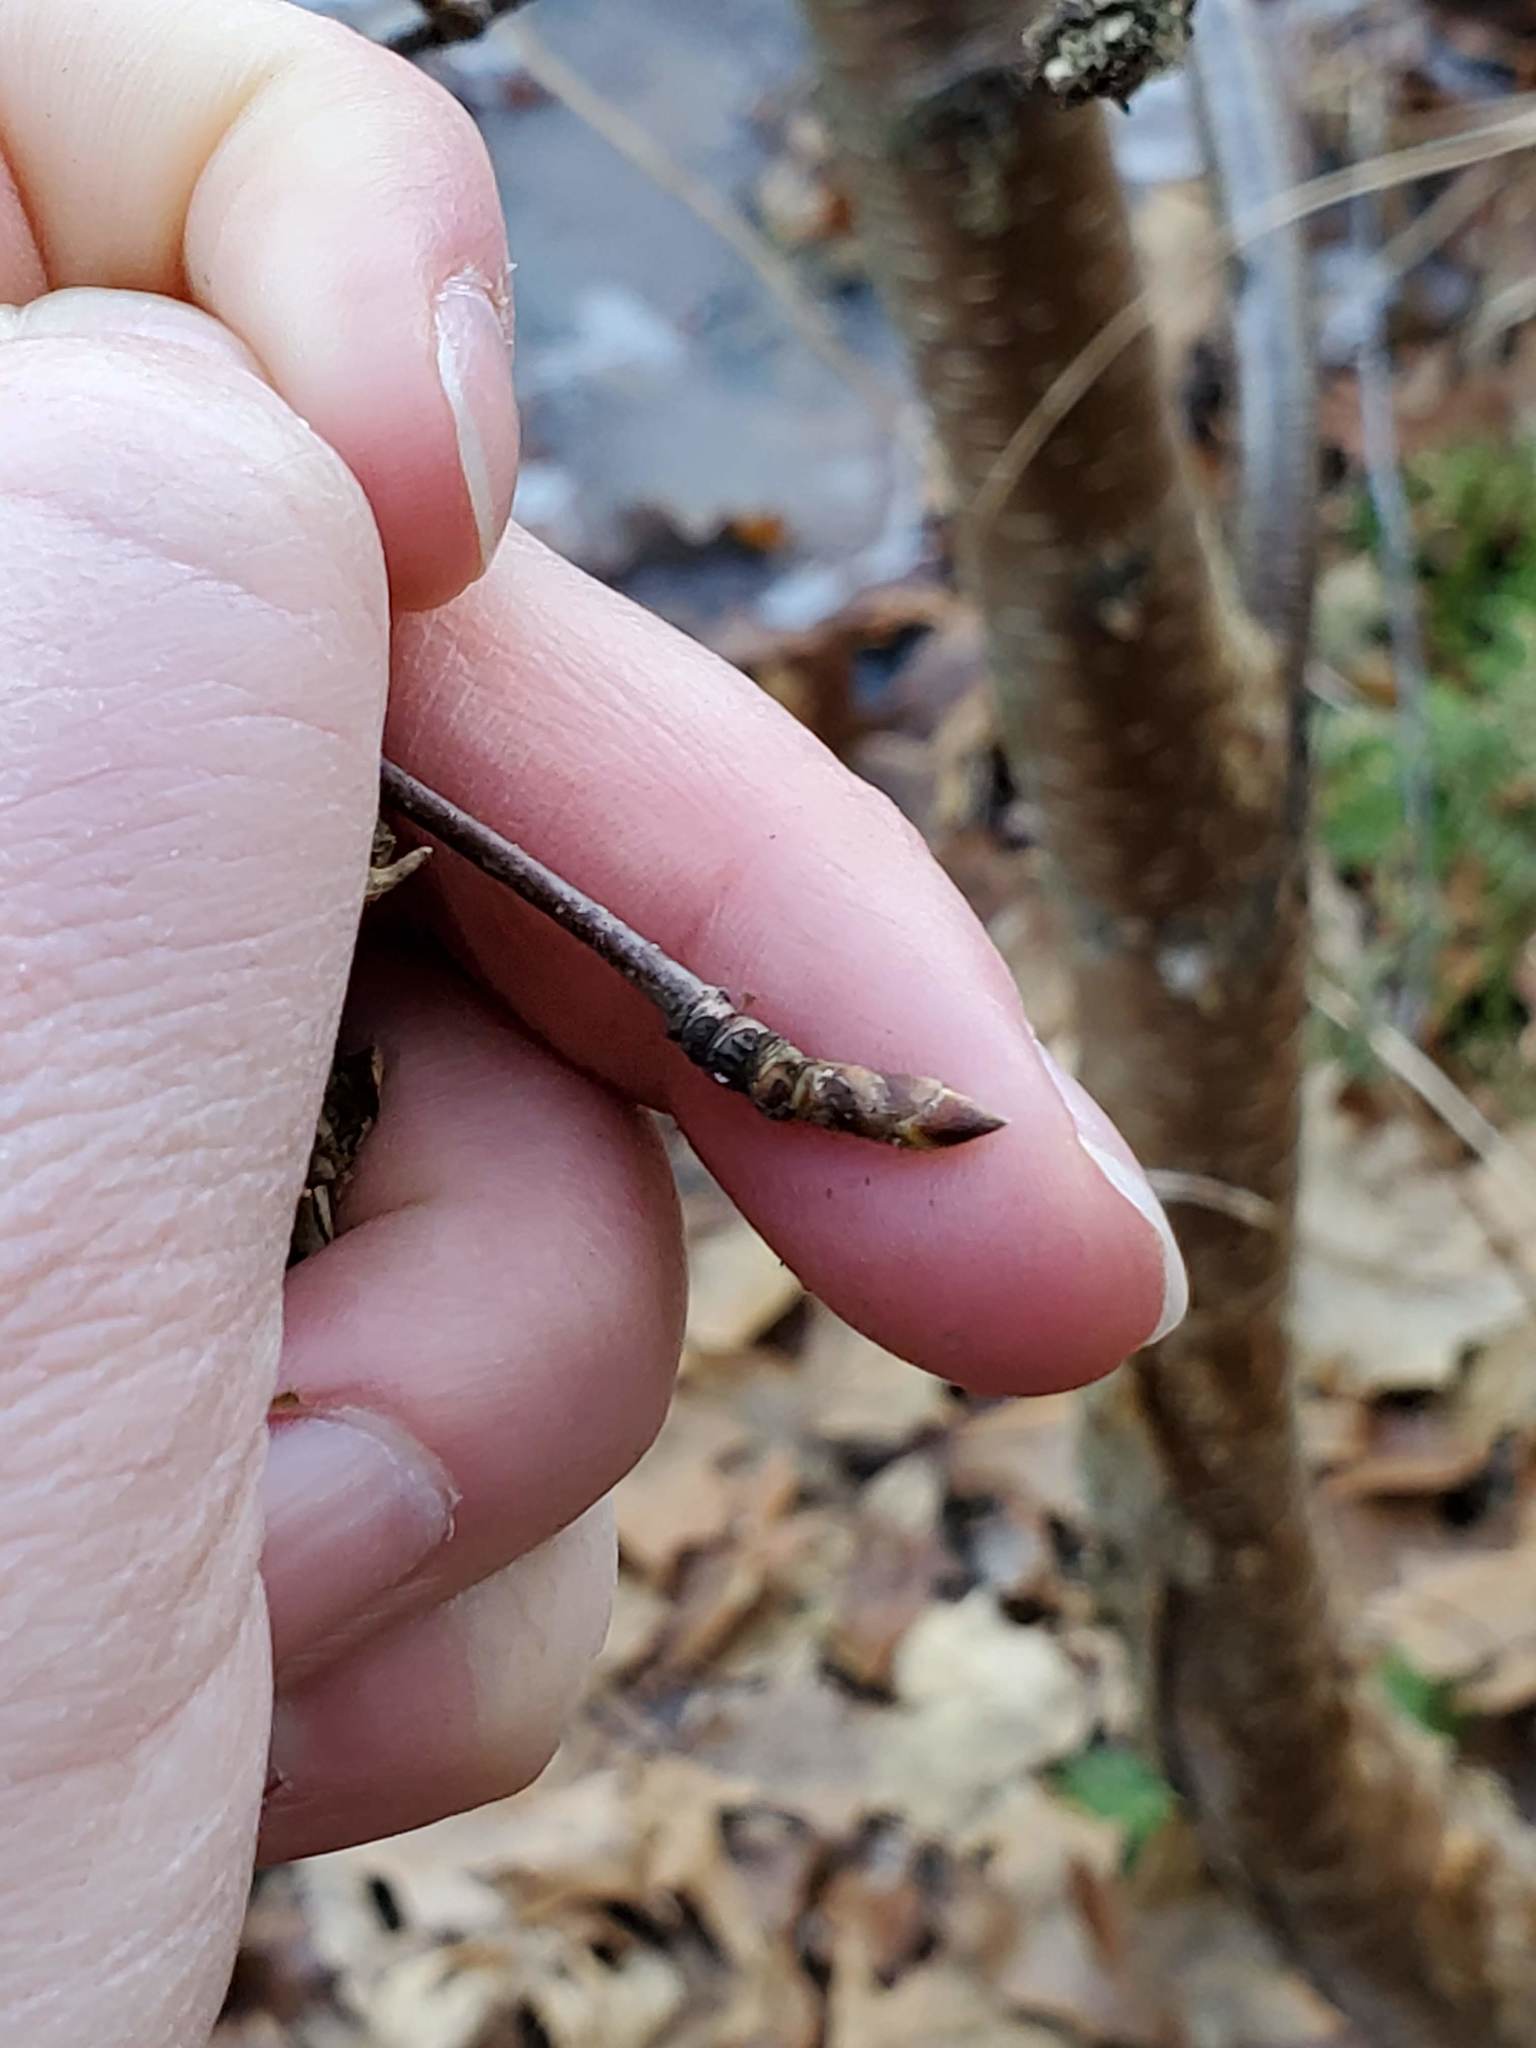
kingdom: Plantae
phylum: Tracheophyta
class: Magnoliopsida
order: Fagales
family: Betulaceae
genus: Betula
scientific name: Betula alleghaniensis
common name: Yellow birch
